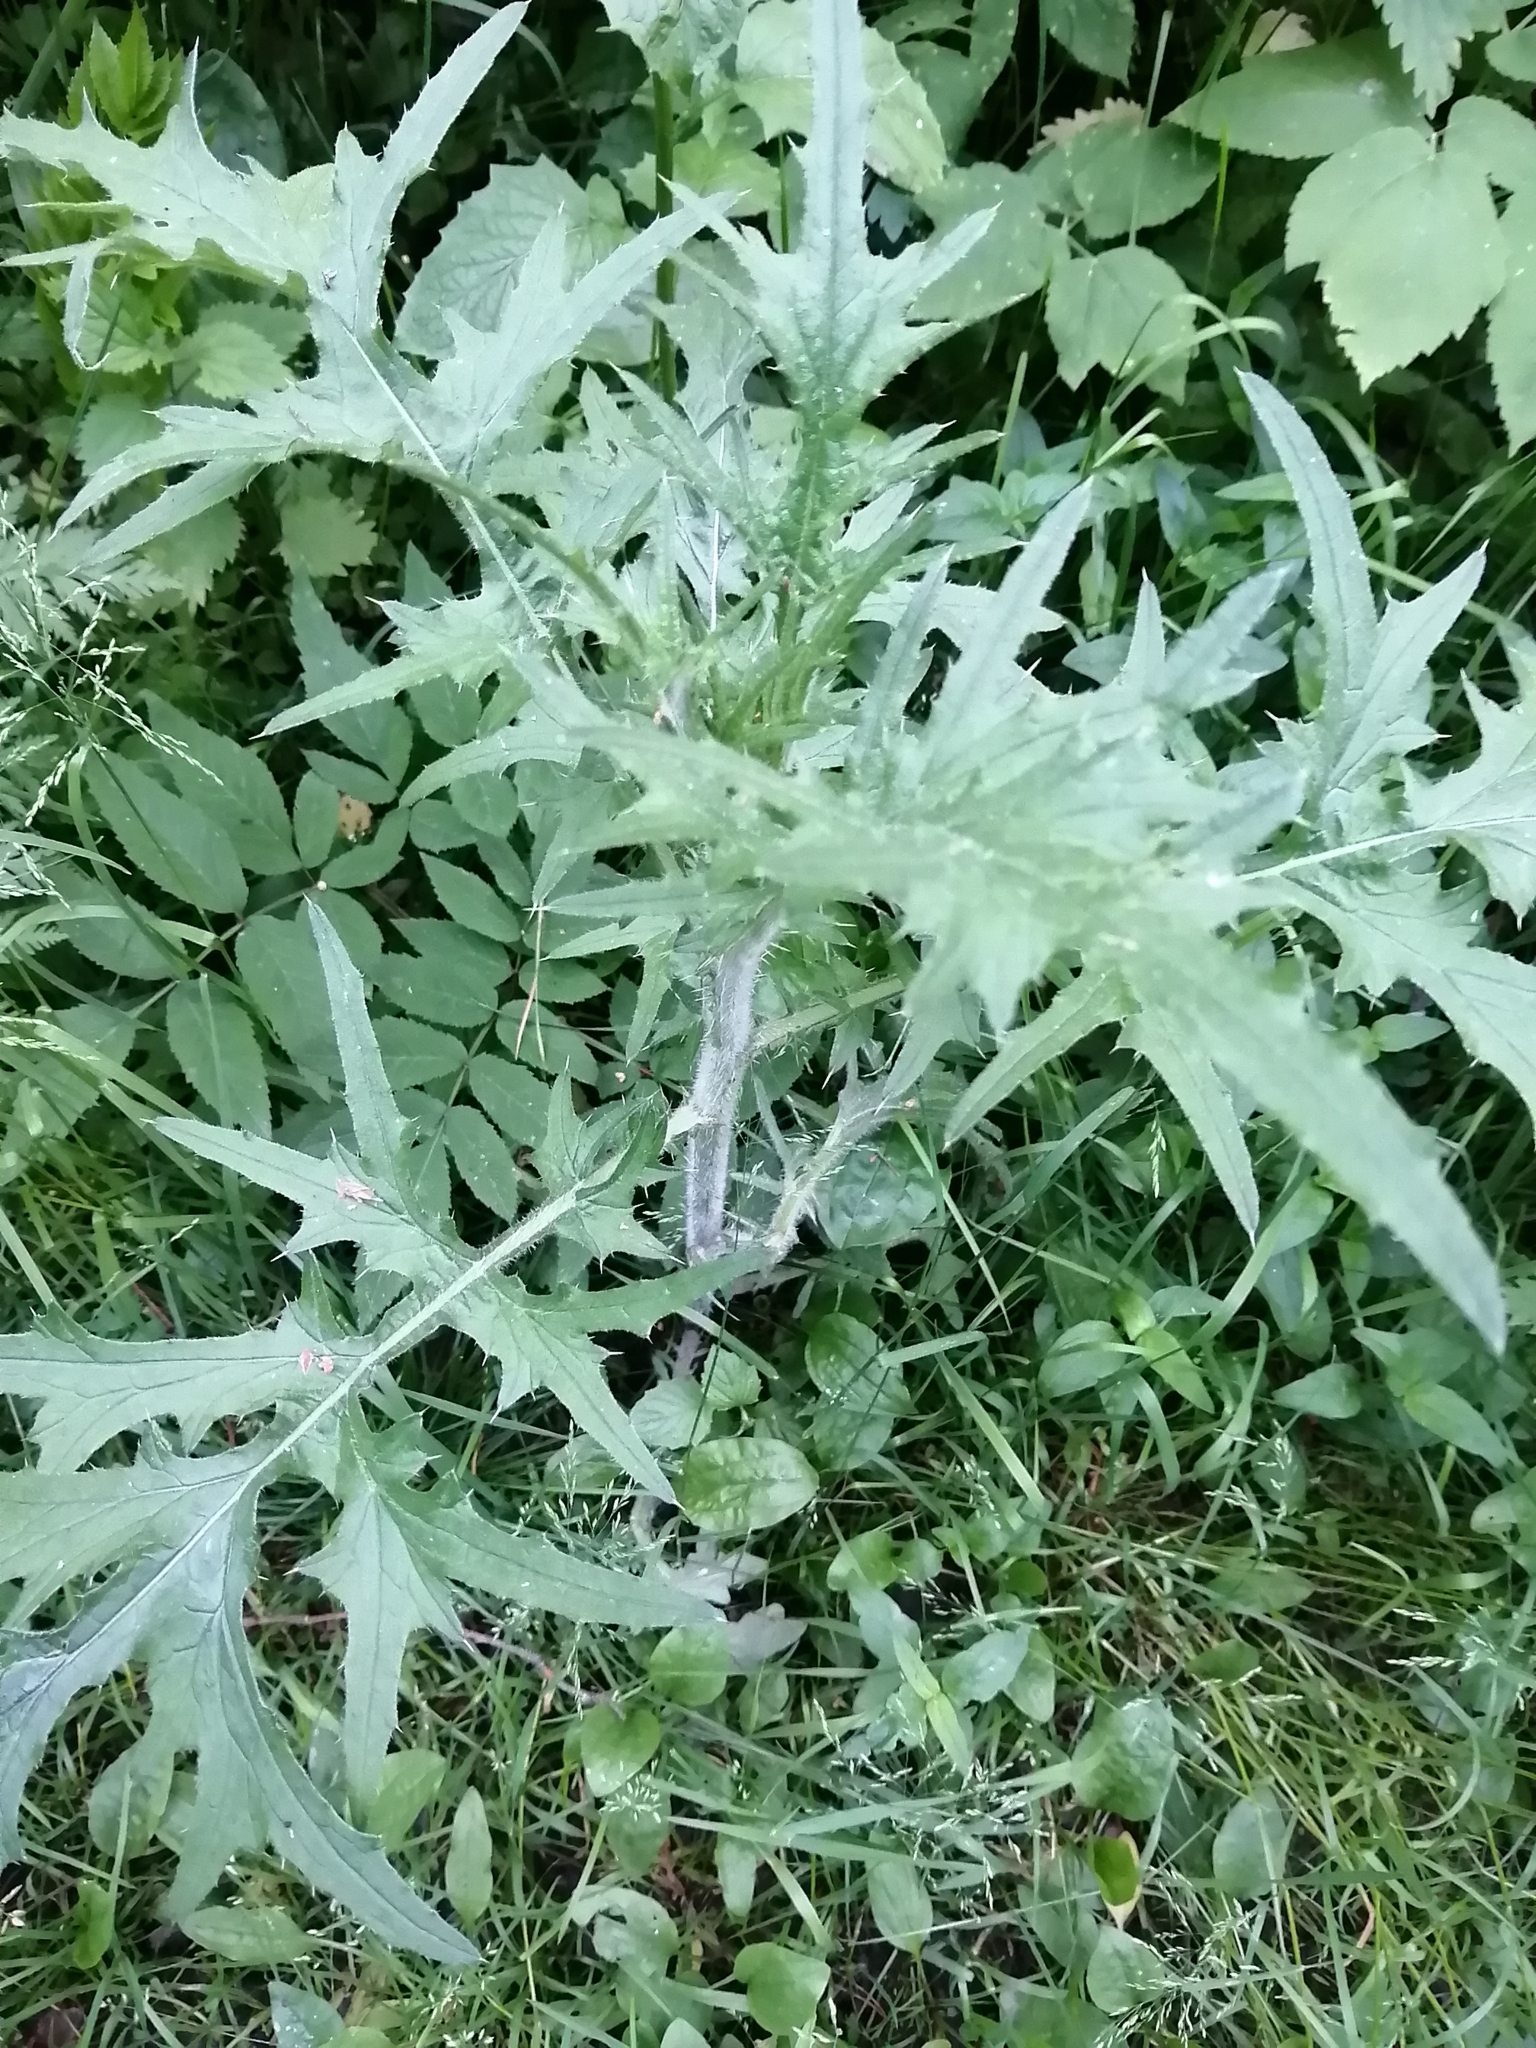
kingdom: Plantae
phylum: Tracheophyta
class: Magnoliopsida
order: Asterales
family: Asteraceae
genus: Cirsium
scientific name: Cirsium vulgare
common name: Bull thistle
